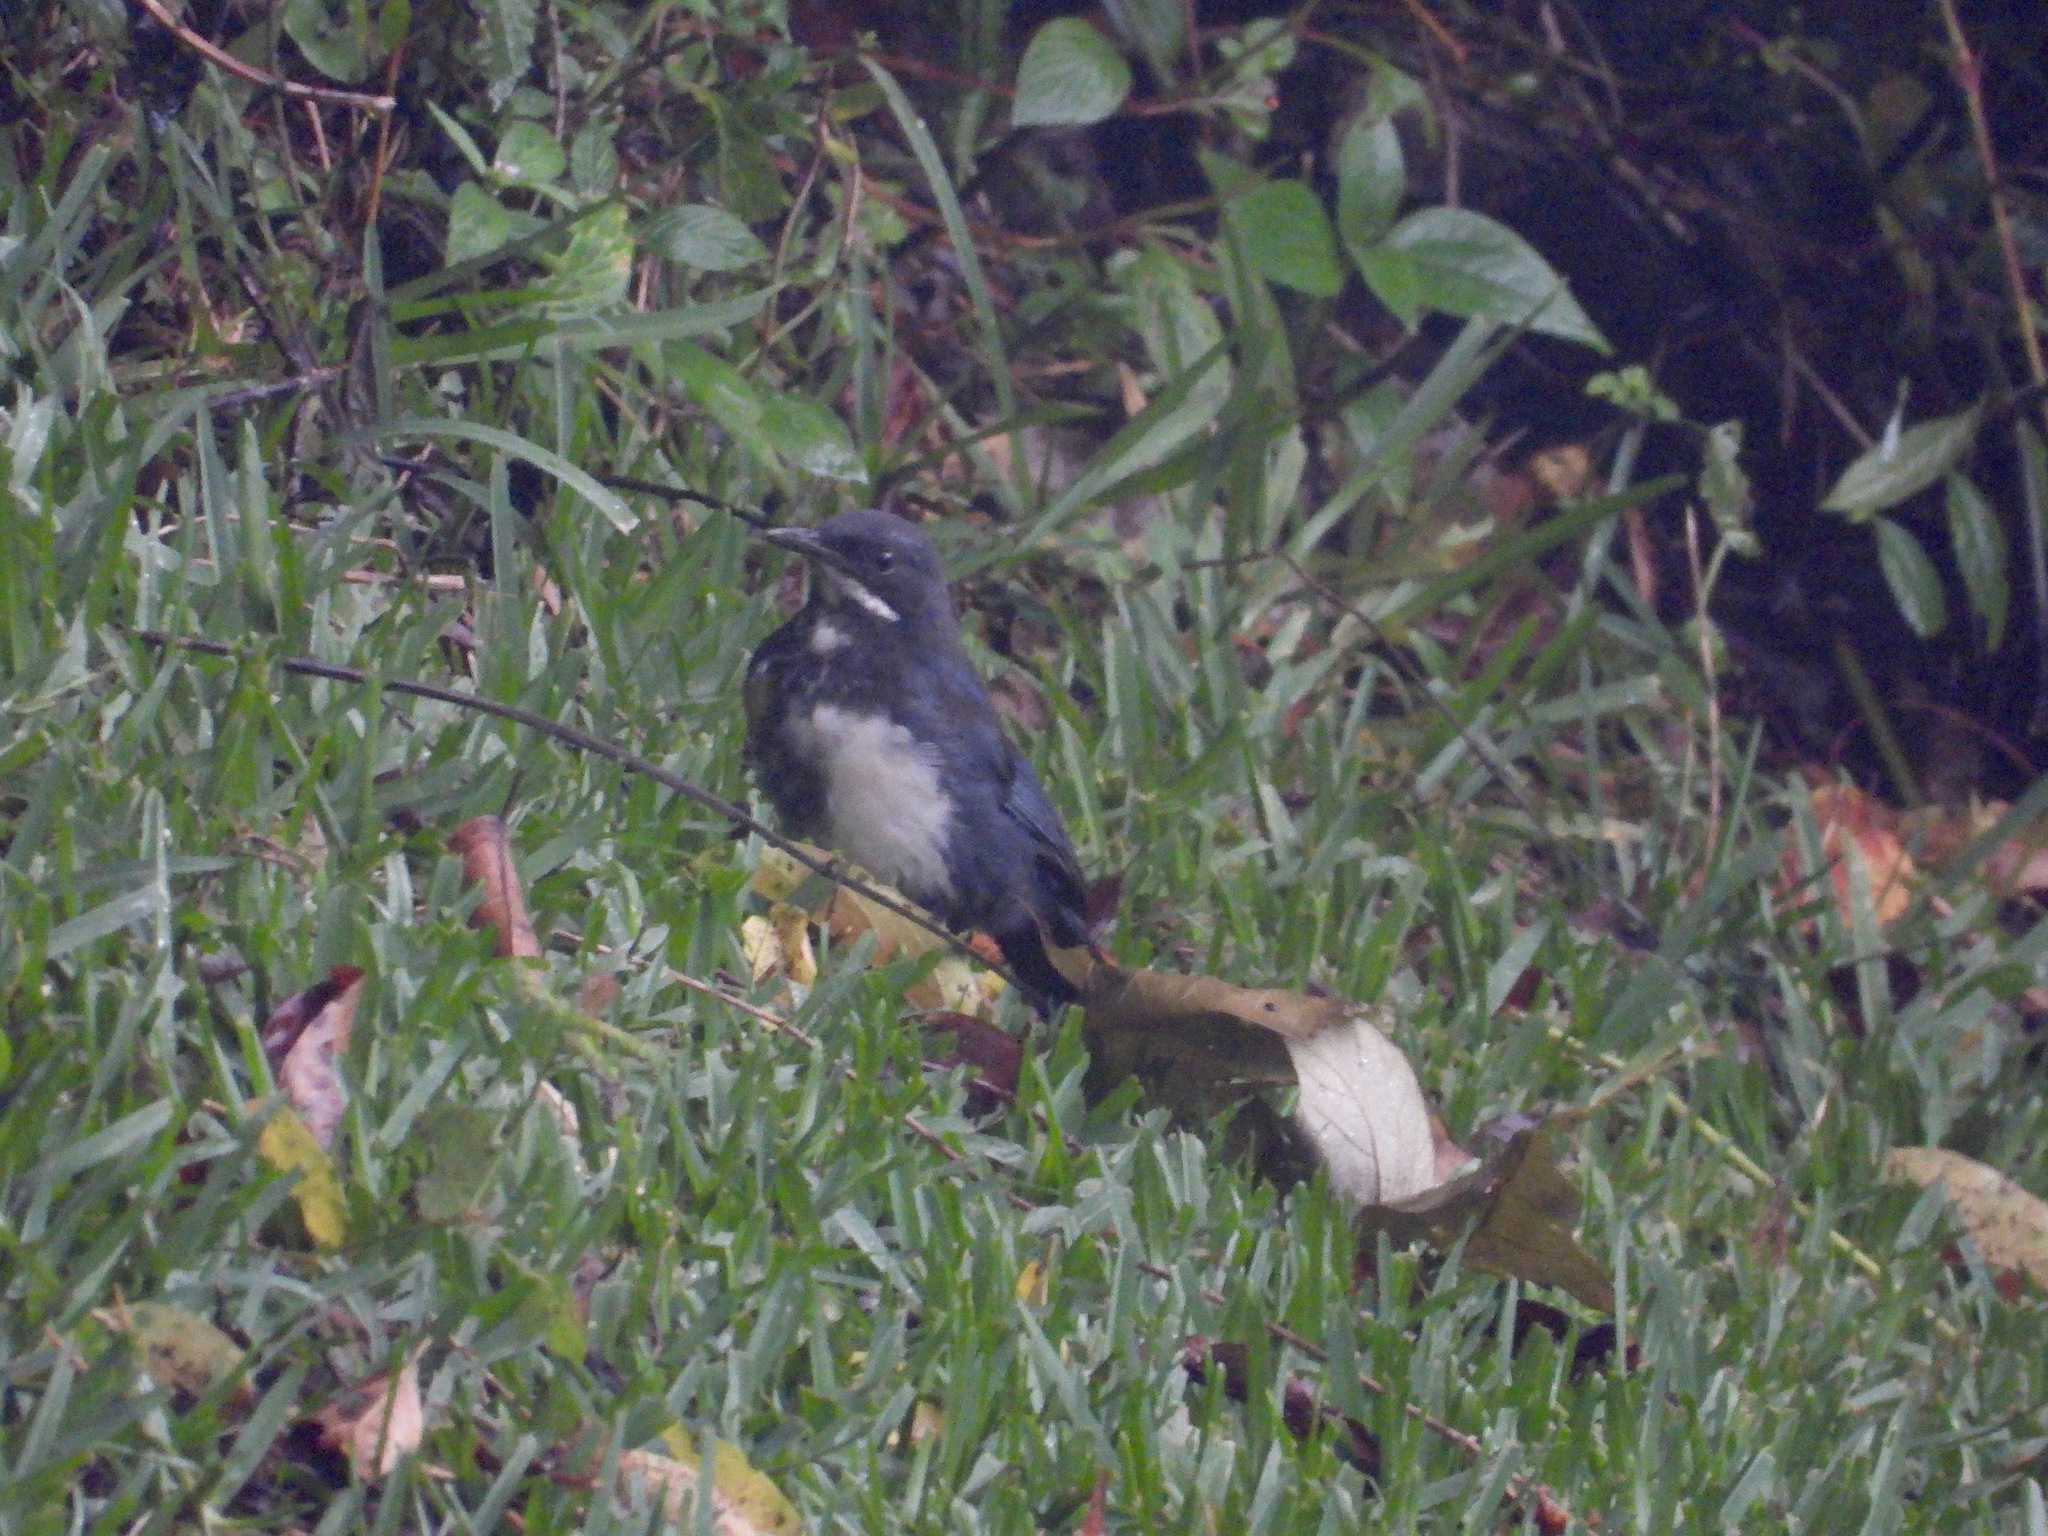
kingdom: Animalia
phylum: Chordata
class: Aves
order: Passeriformes
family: Mimidae
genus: Melanotis
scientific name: Melanotis hypoleucus
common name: Blue-and-white mockingbird
